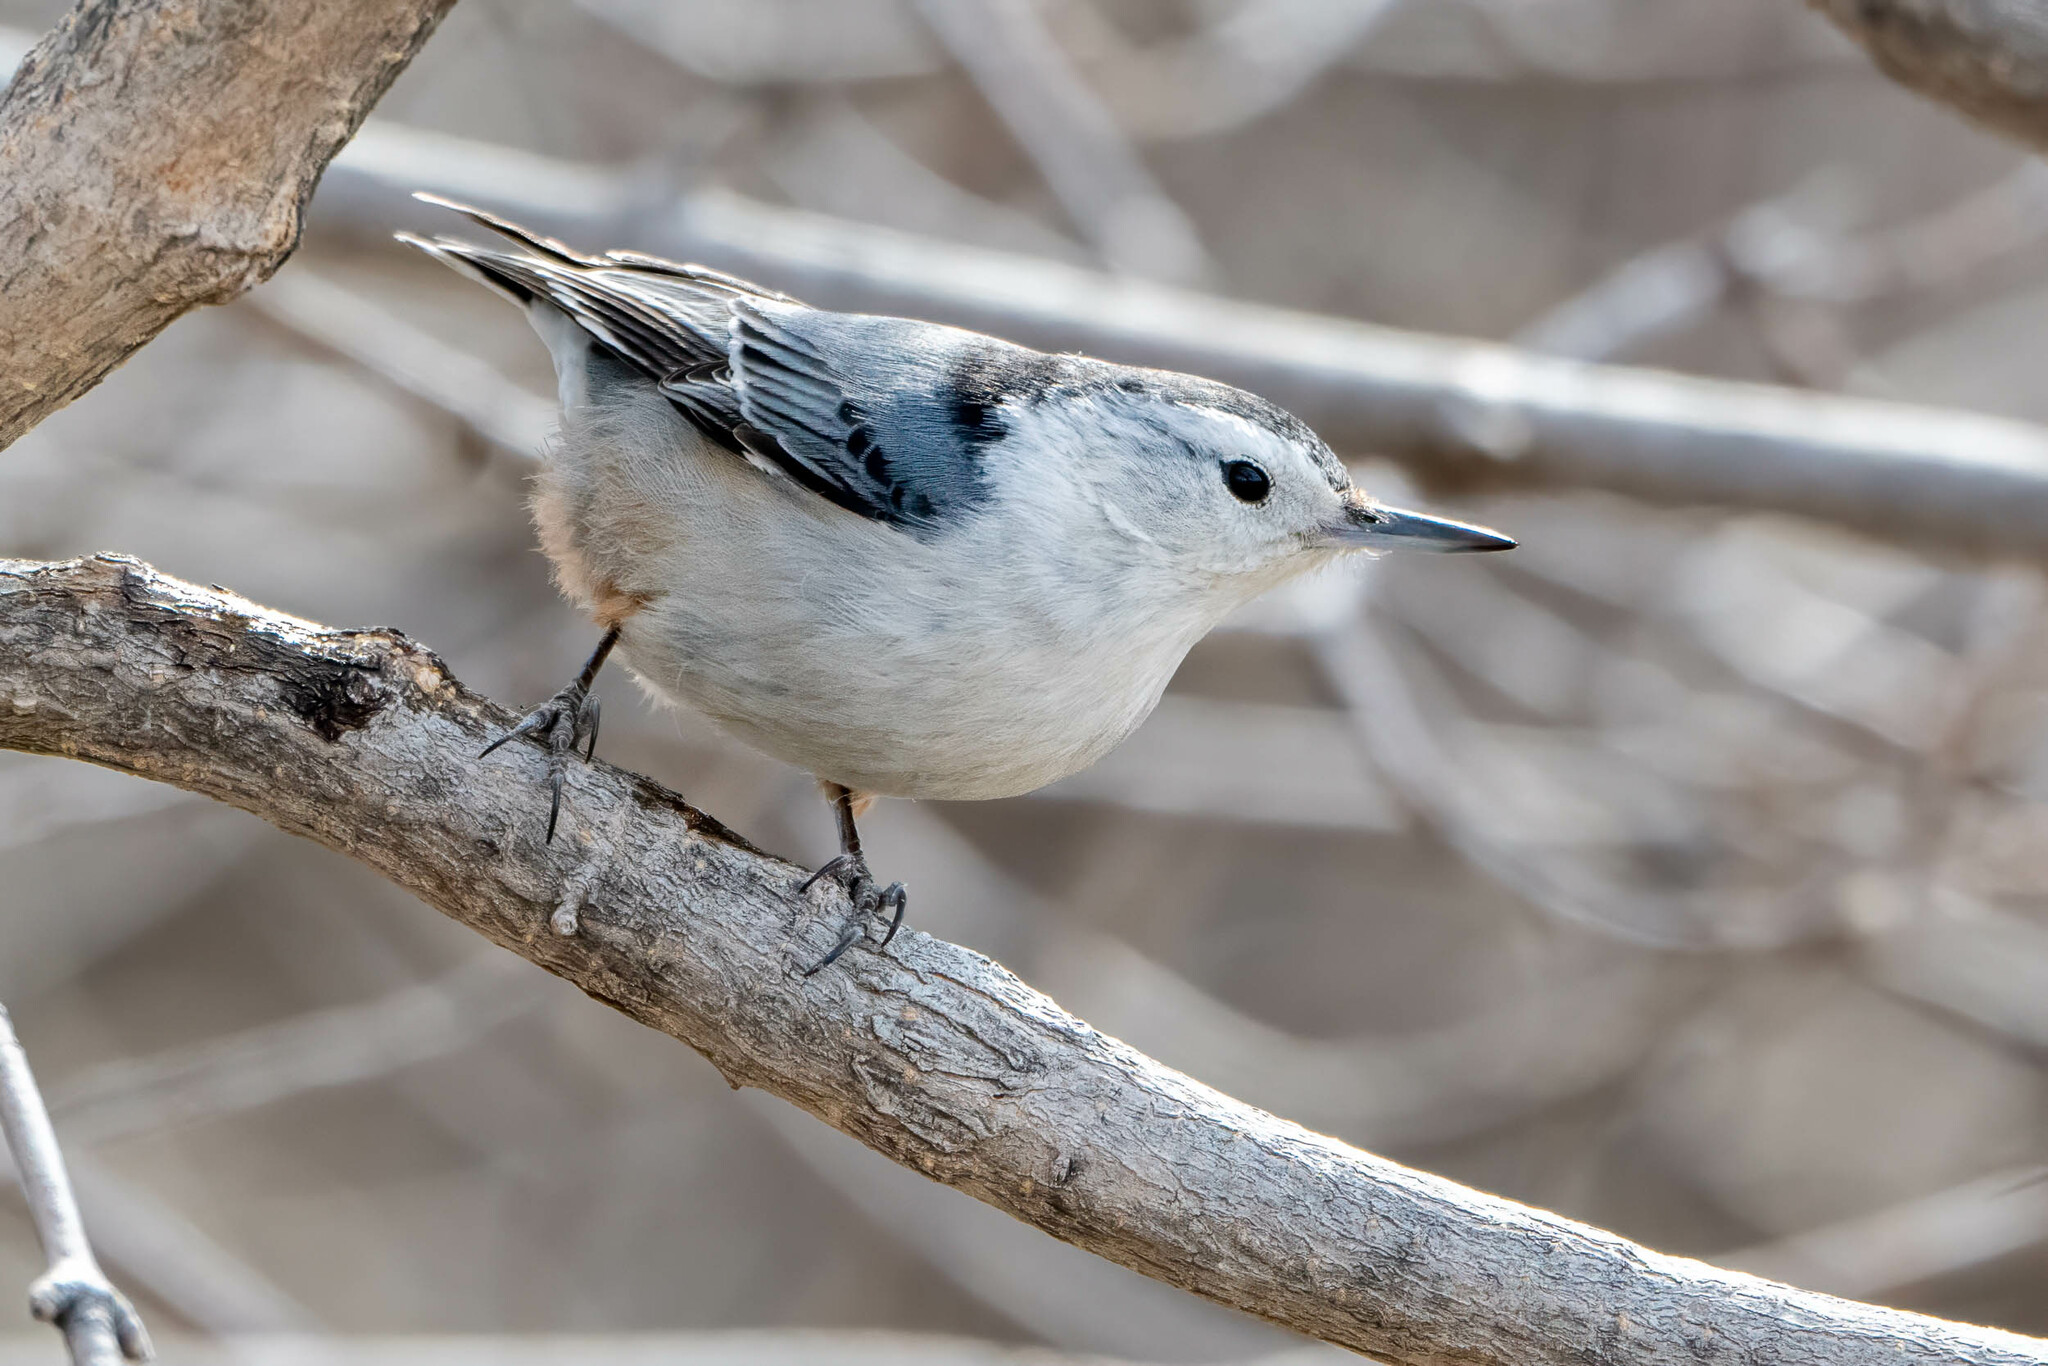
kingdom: Animalia
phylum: Chordata
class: Aves
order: Passeriformes
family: Sittidae
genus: Sitta
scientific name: Sitta carolinensis
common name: White-breasted nuthatch
